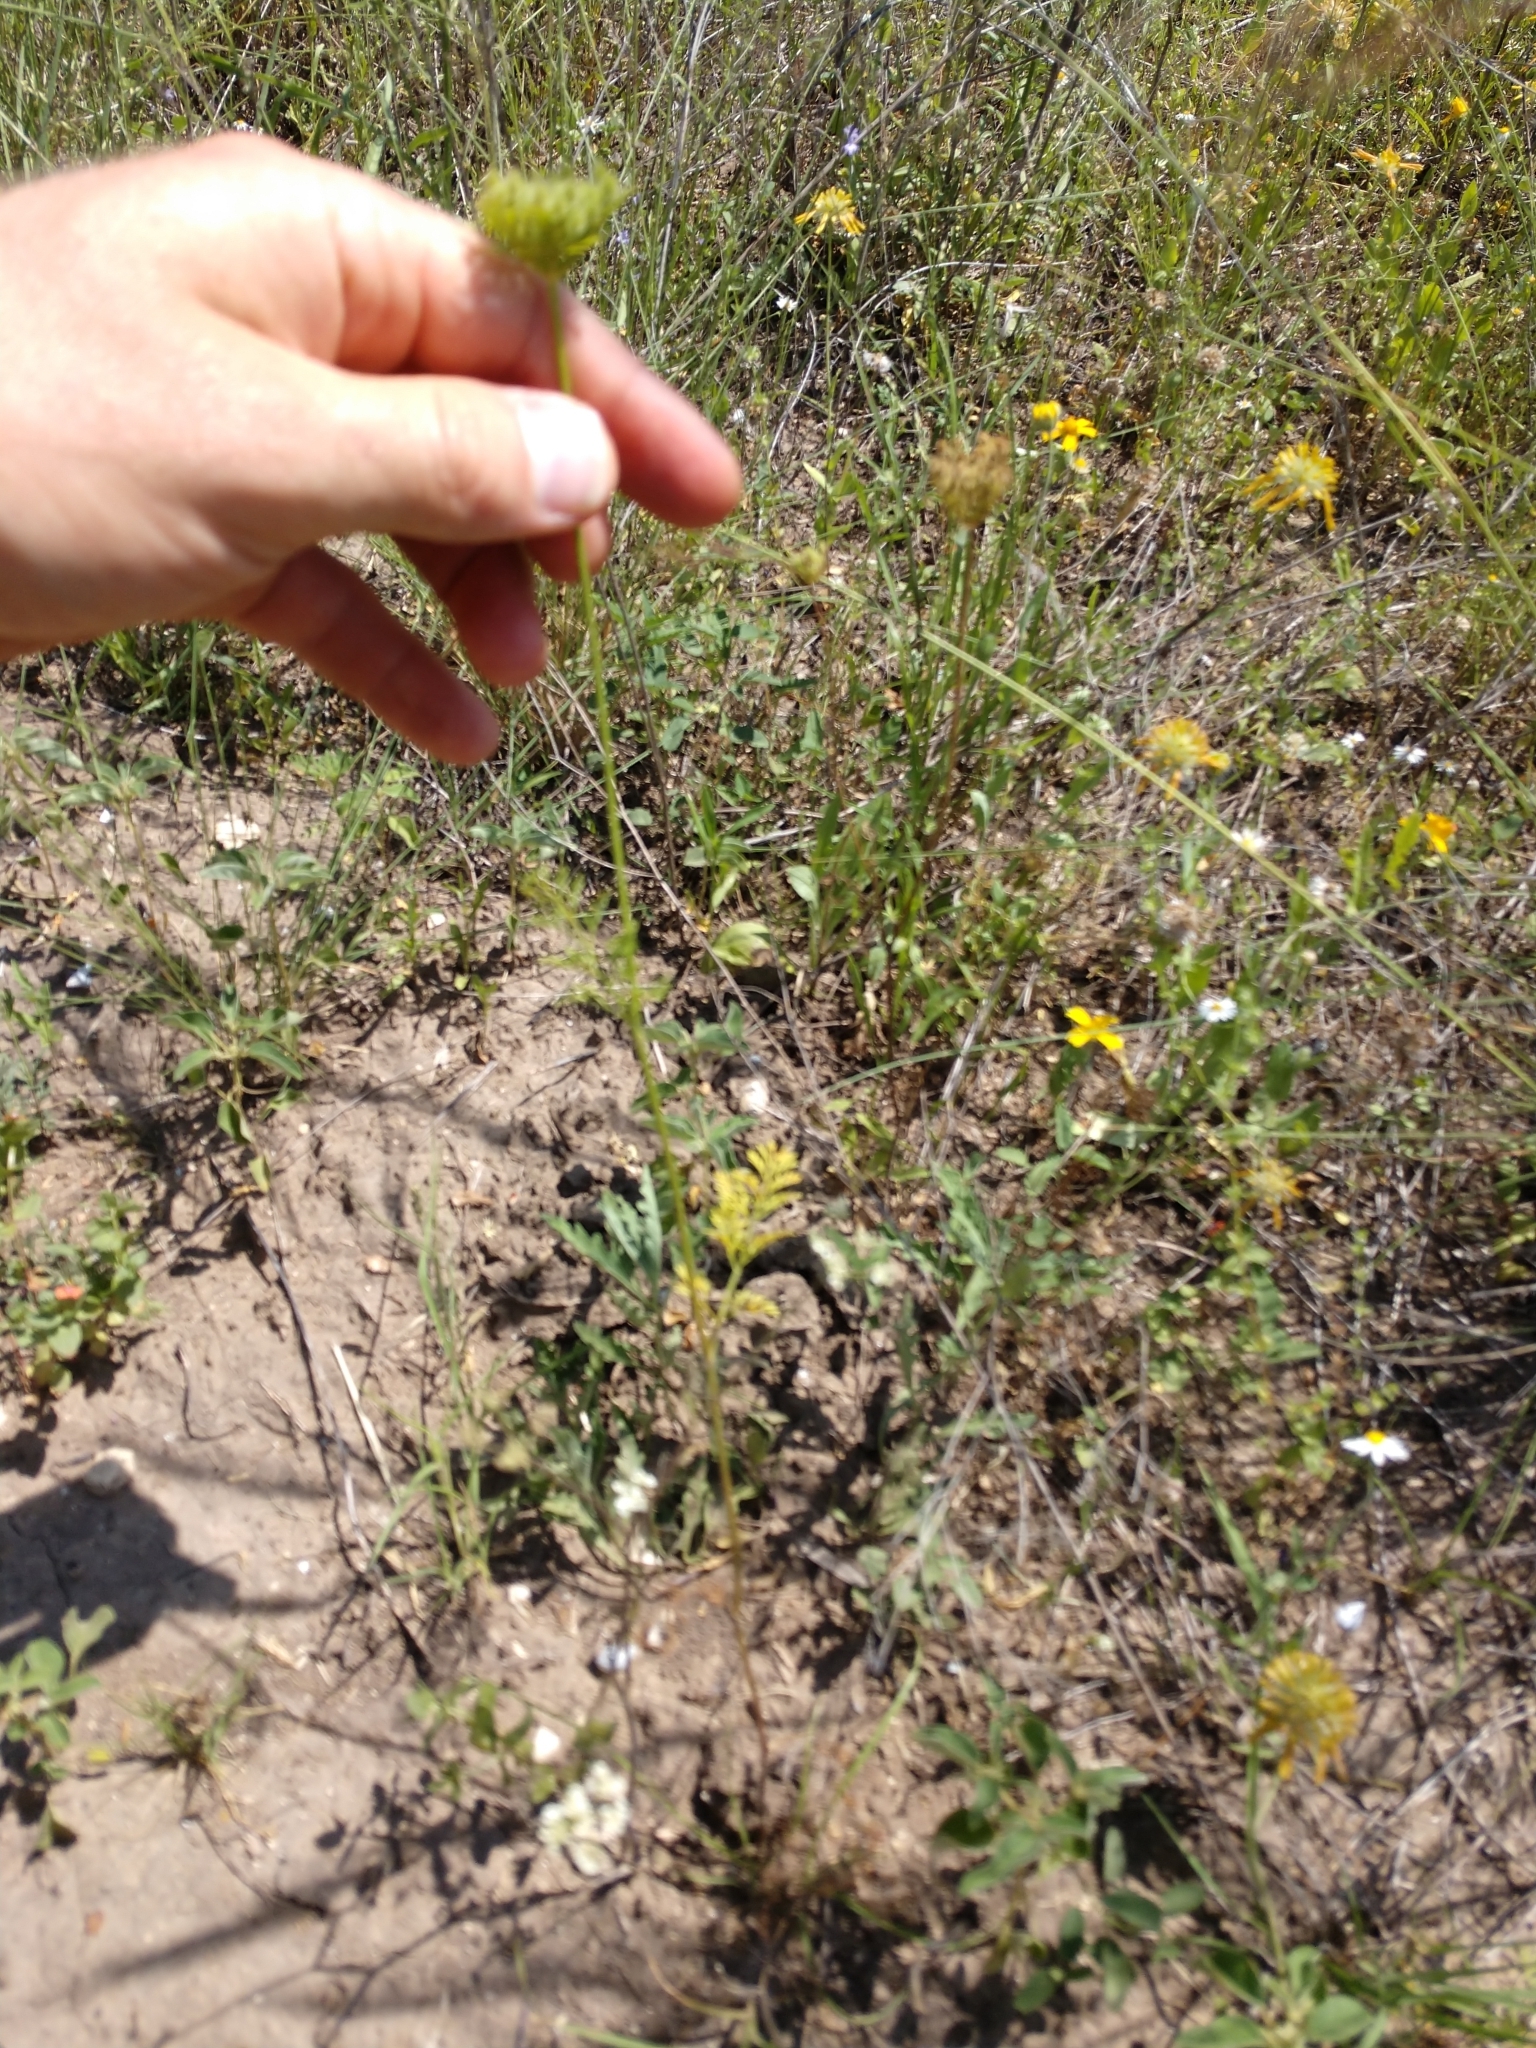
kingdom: Plantae
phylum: Tracheophyta
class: Magnoliopsida
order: Apiales
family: Apiaceae
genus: Daucus
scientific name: Daucus pusillus
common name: Southwest wild carrot
